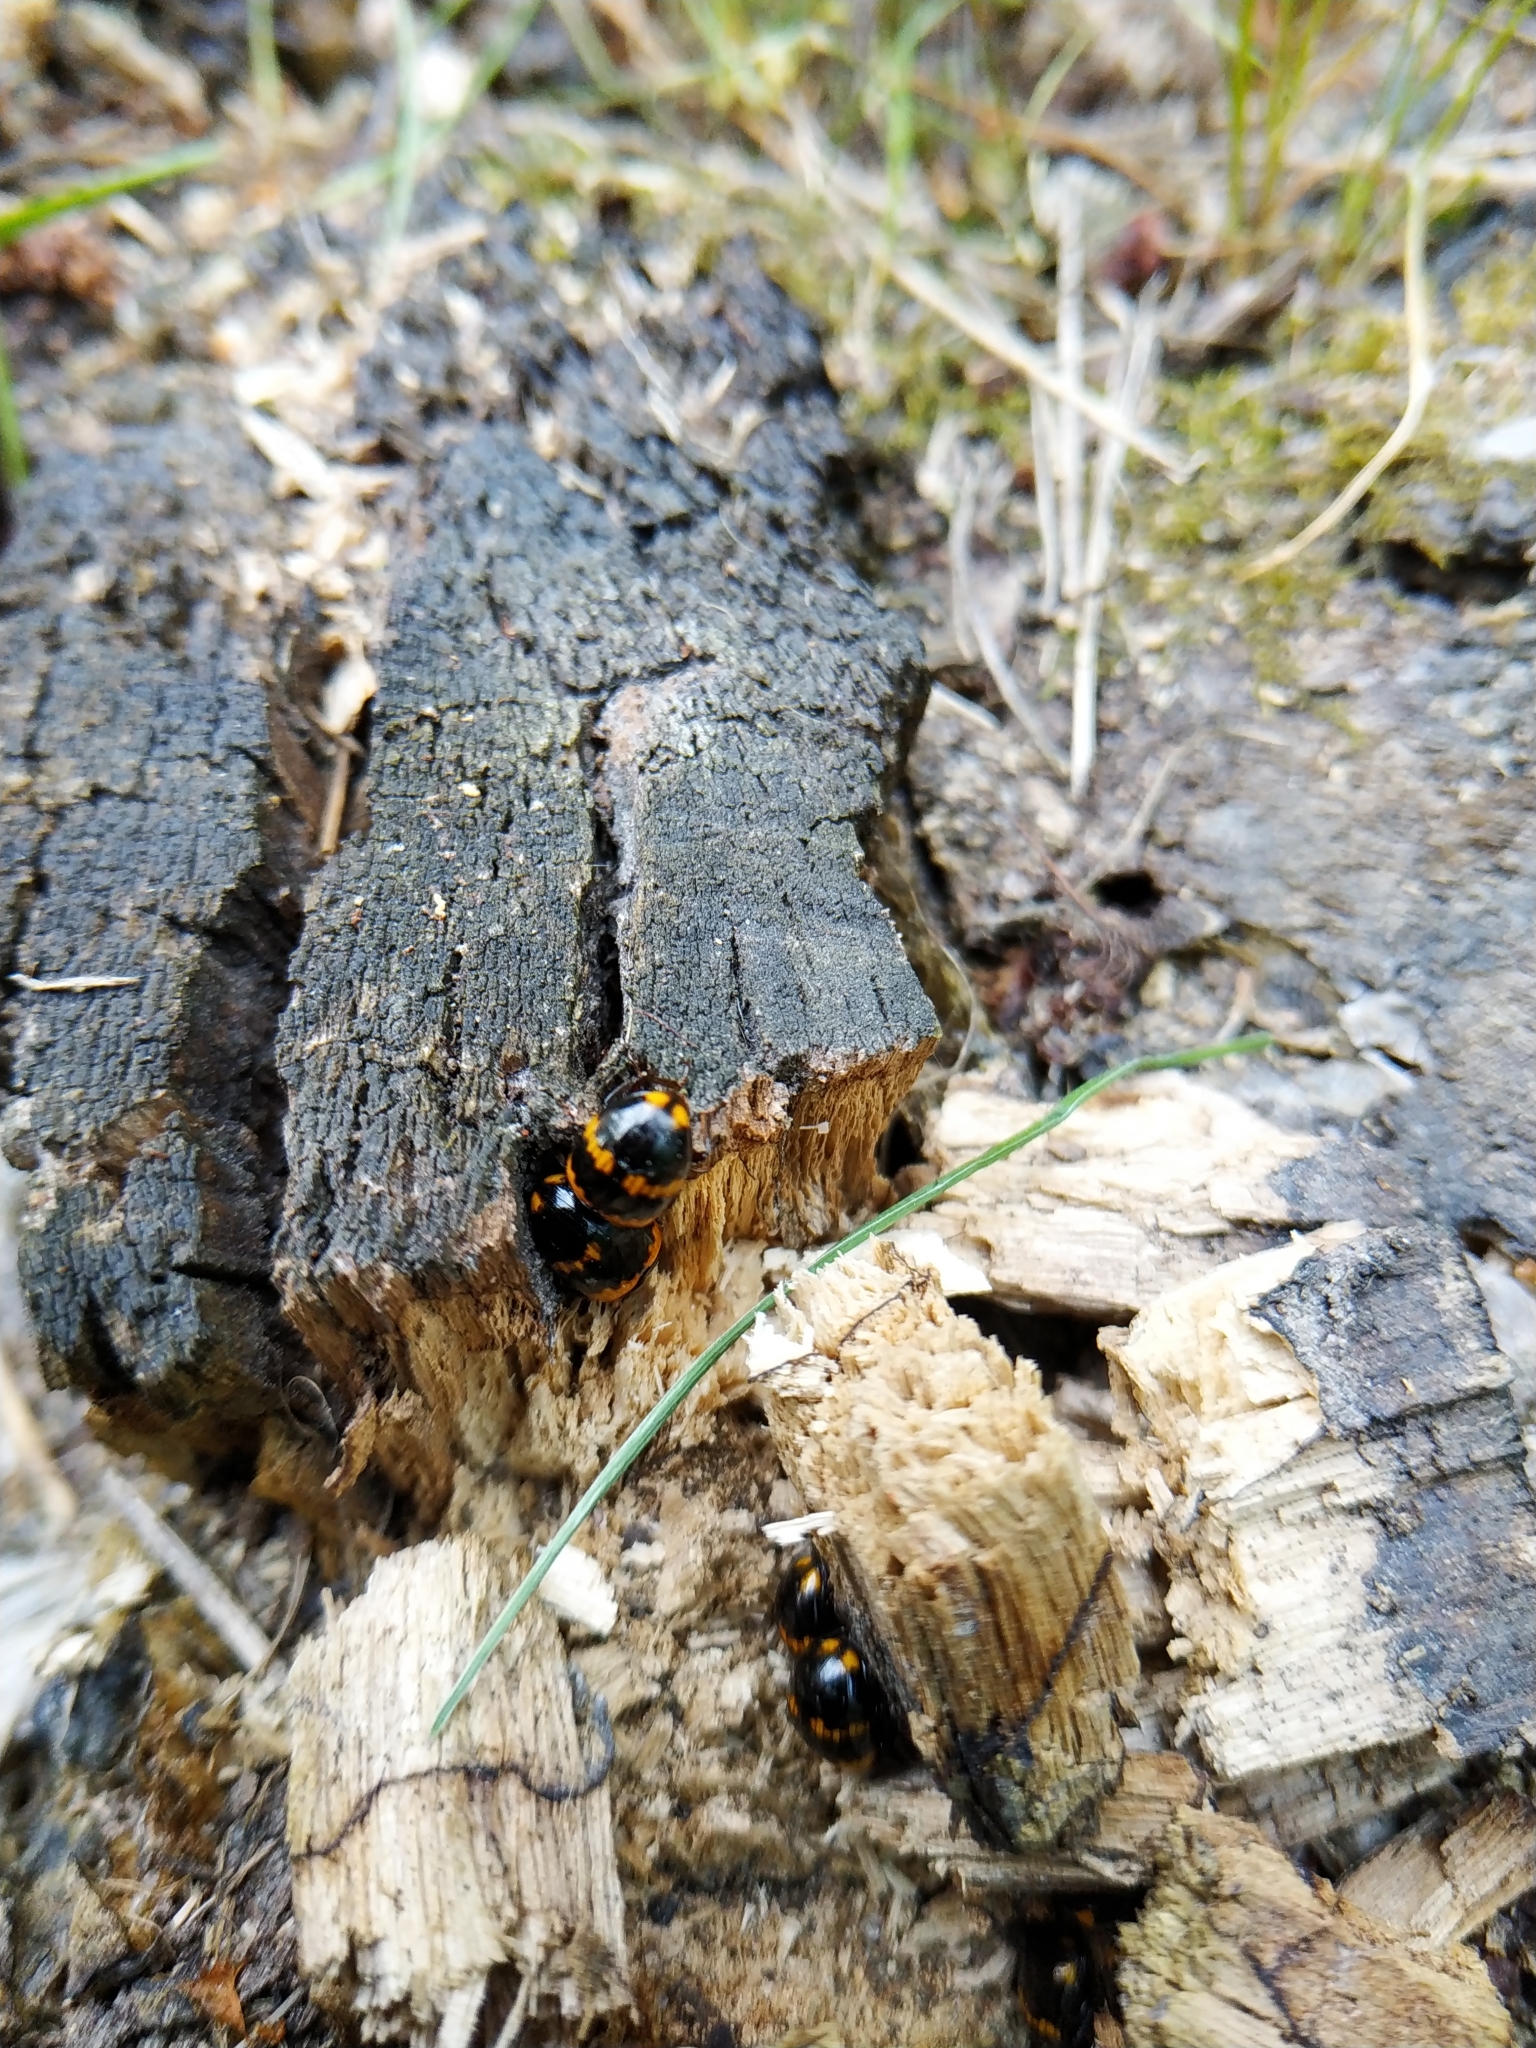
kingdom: Animalia
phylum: Arthropoda
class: Insecta
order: Coleoptera
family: Tenebrionidae
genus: Diaperis
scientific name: Diaperis boleti
